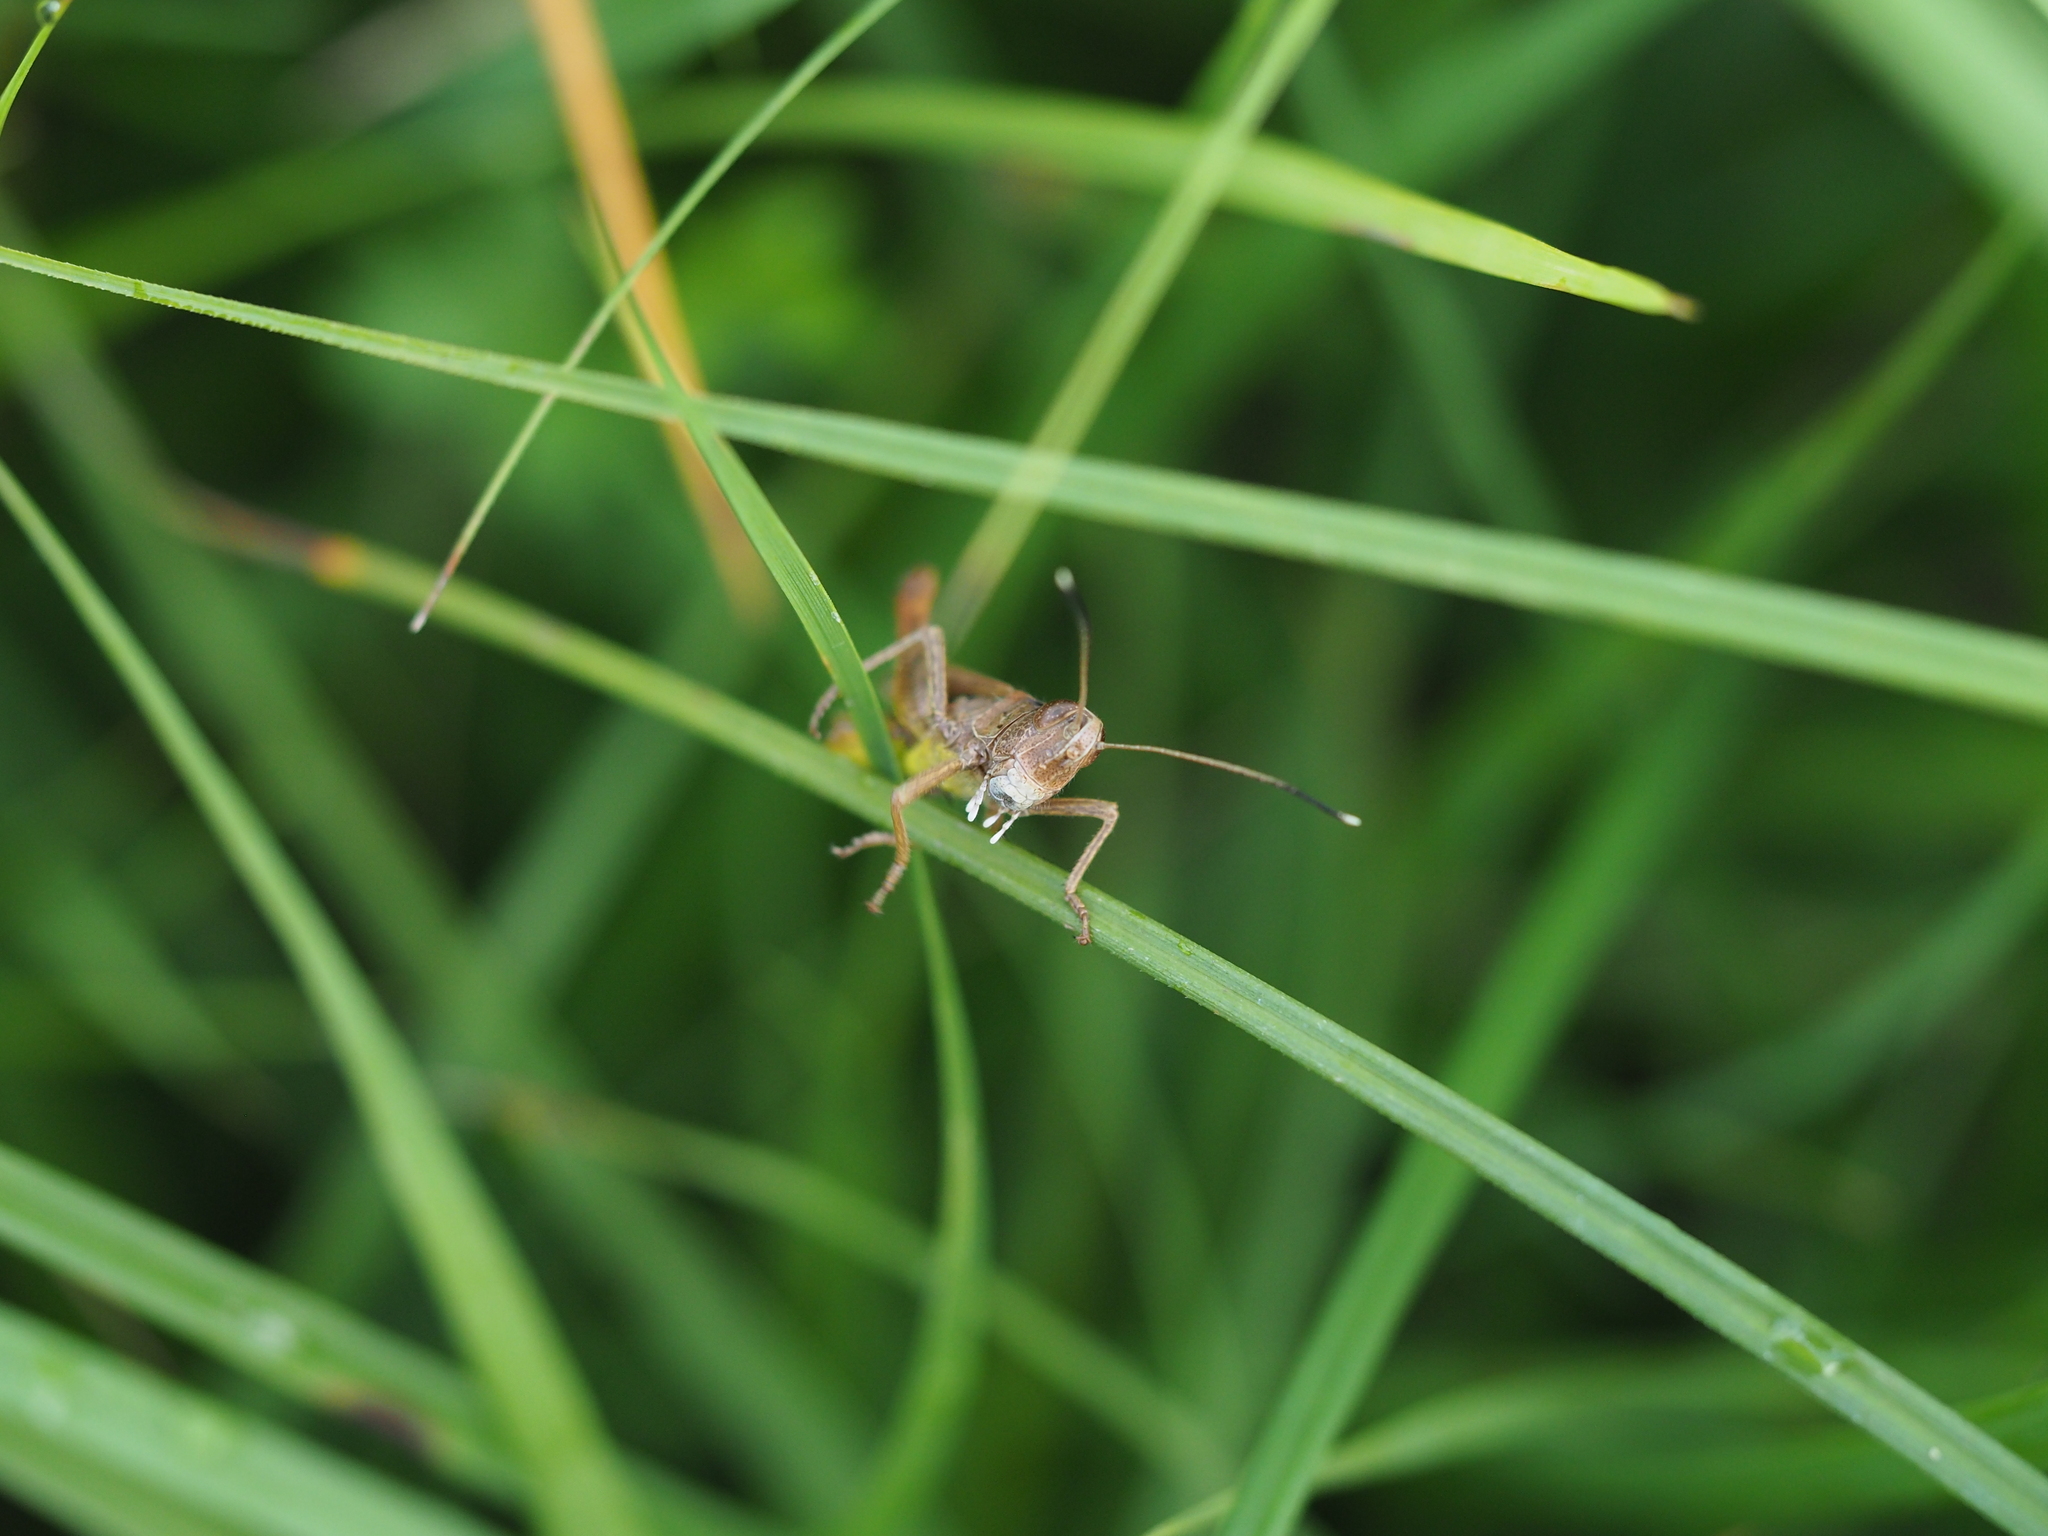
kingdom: Animalia
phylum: Arthropoda
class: Insecta
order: Orthoptera
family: Acrididae
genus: Gomphocerippus
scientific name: Gomphocerippus rufus
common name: Rufous grasshopper
